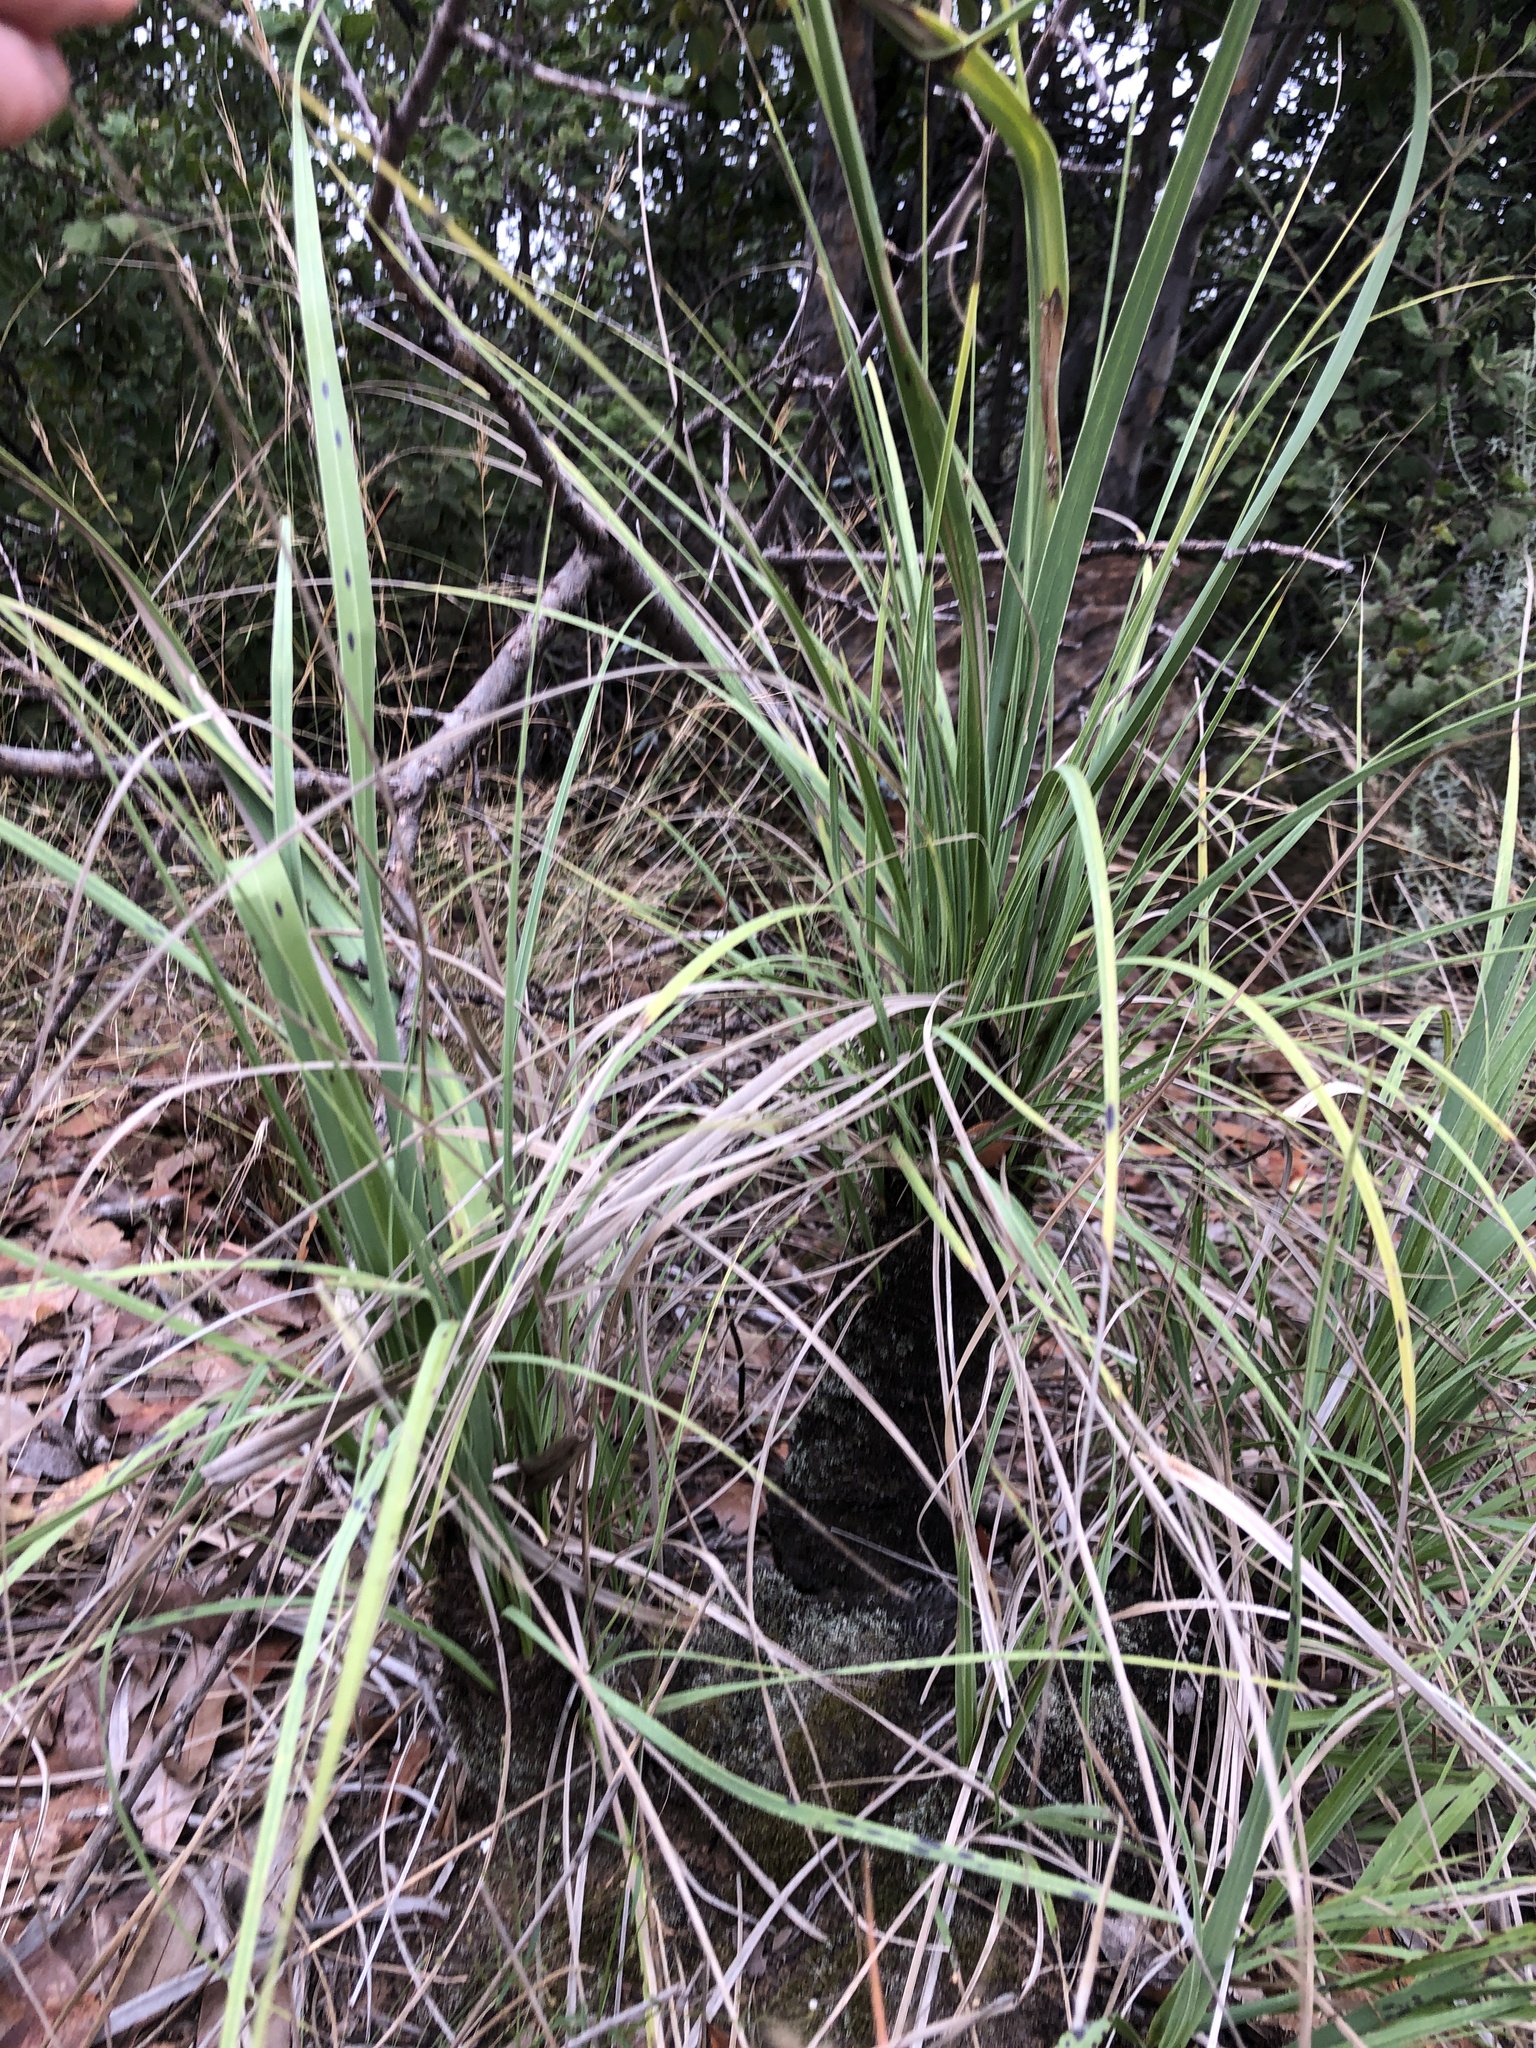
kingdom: Plantae
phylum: Tracheophyta
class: Liliopsida
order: Pandanales
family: Velloziaceae
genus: Xerophyta
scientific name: Xerophyta retinervis
